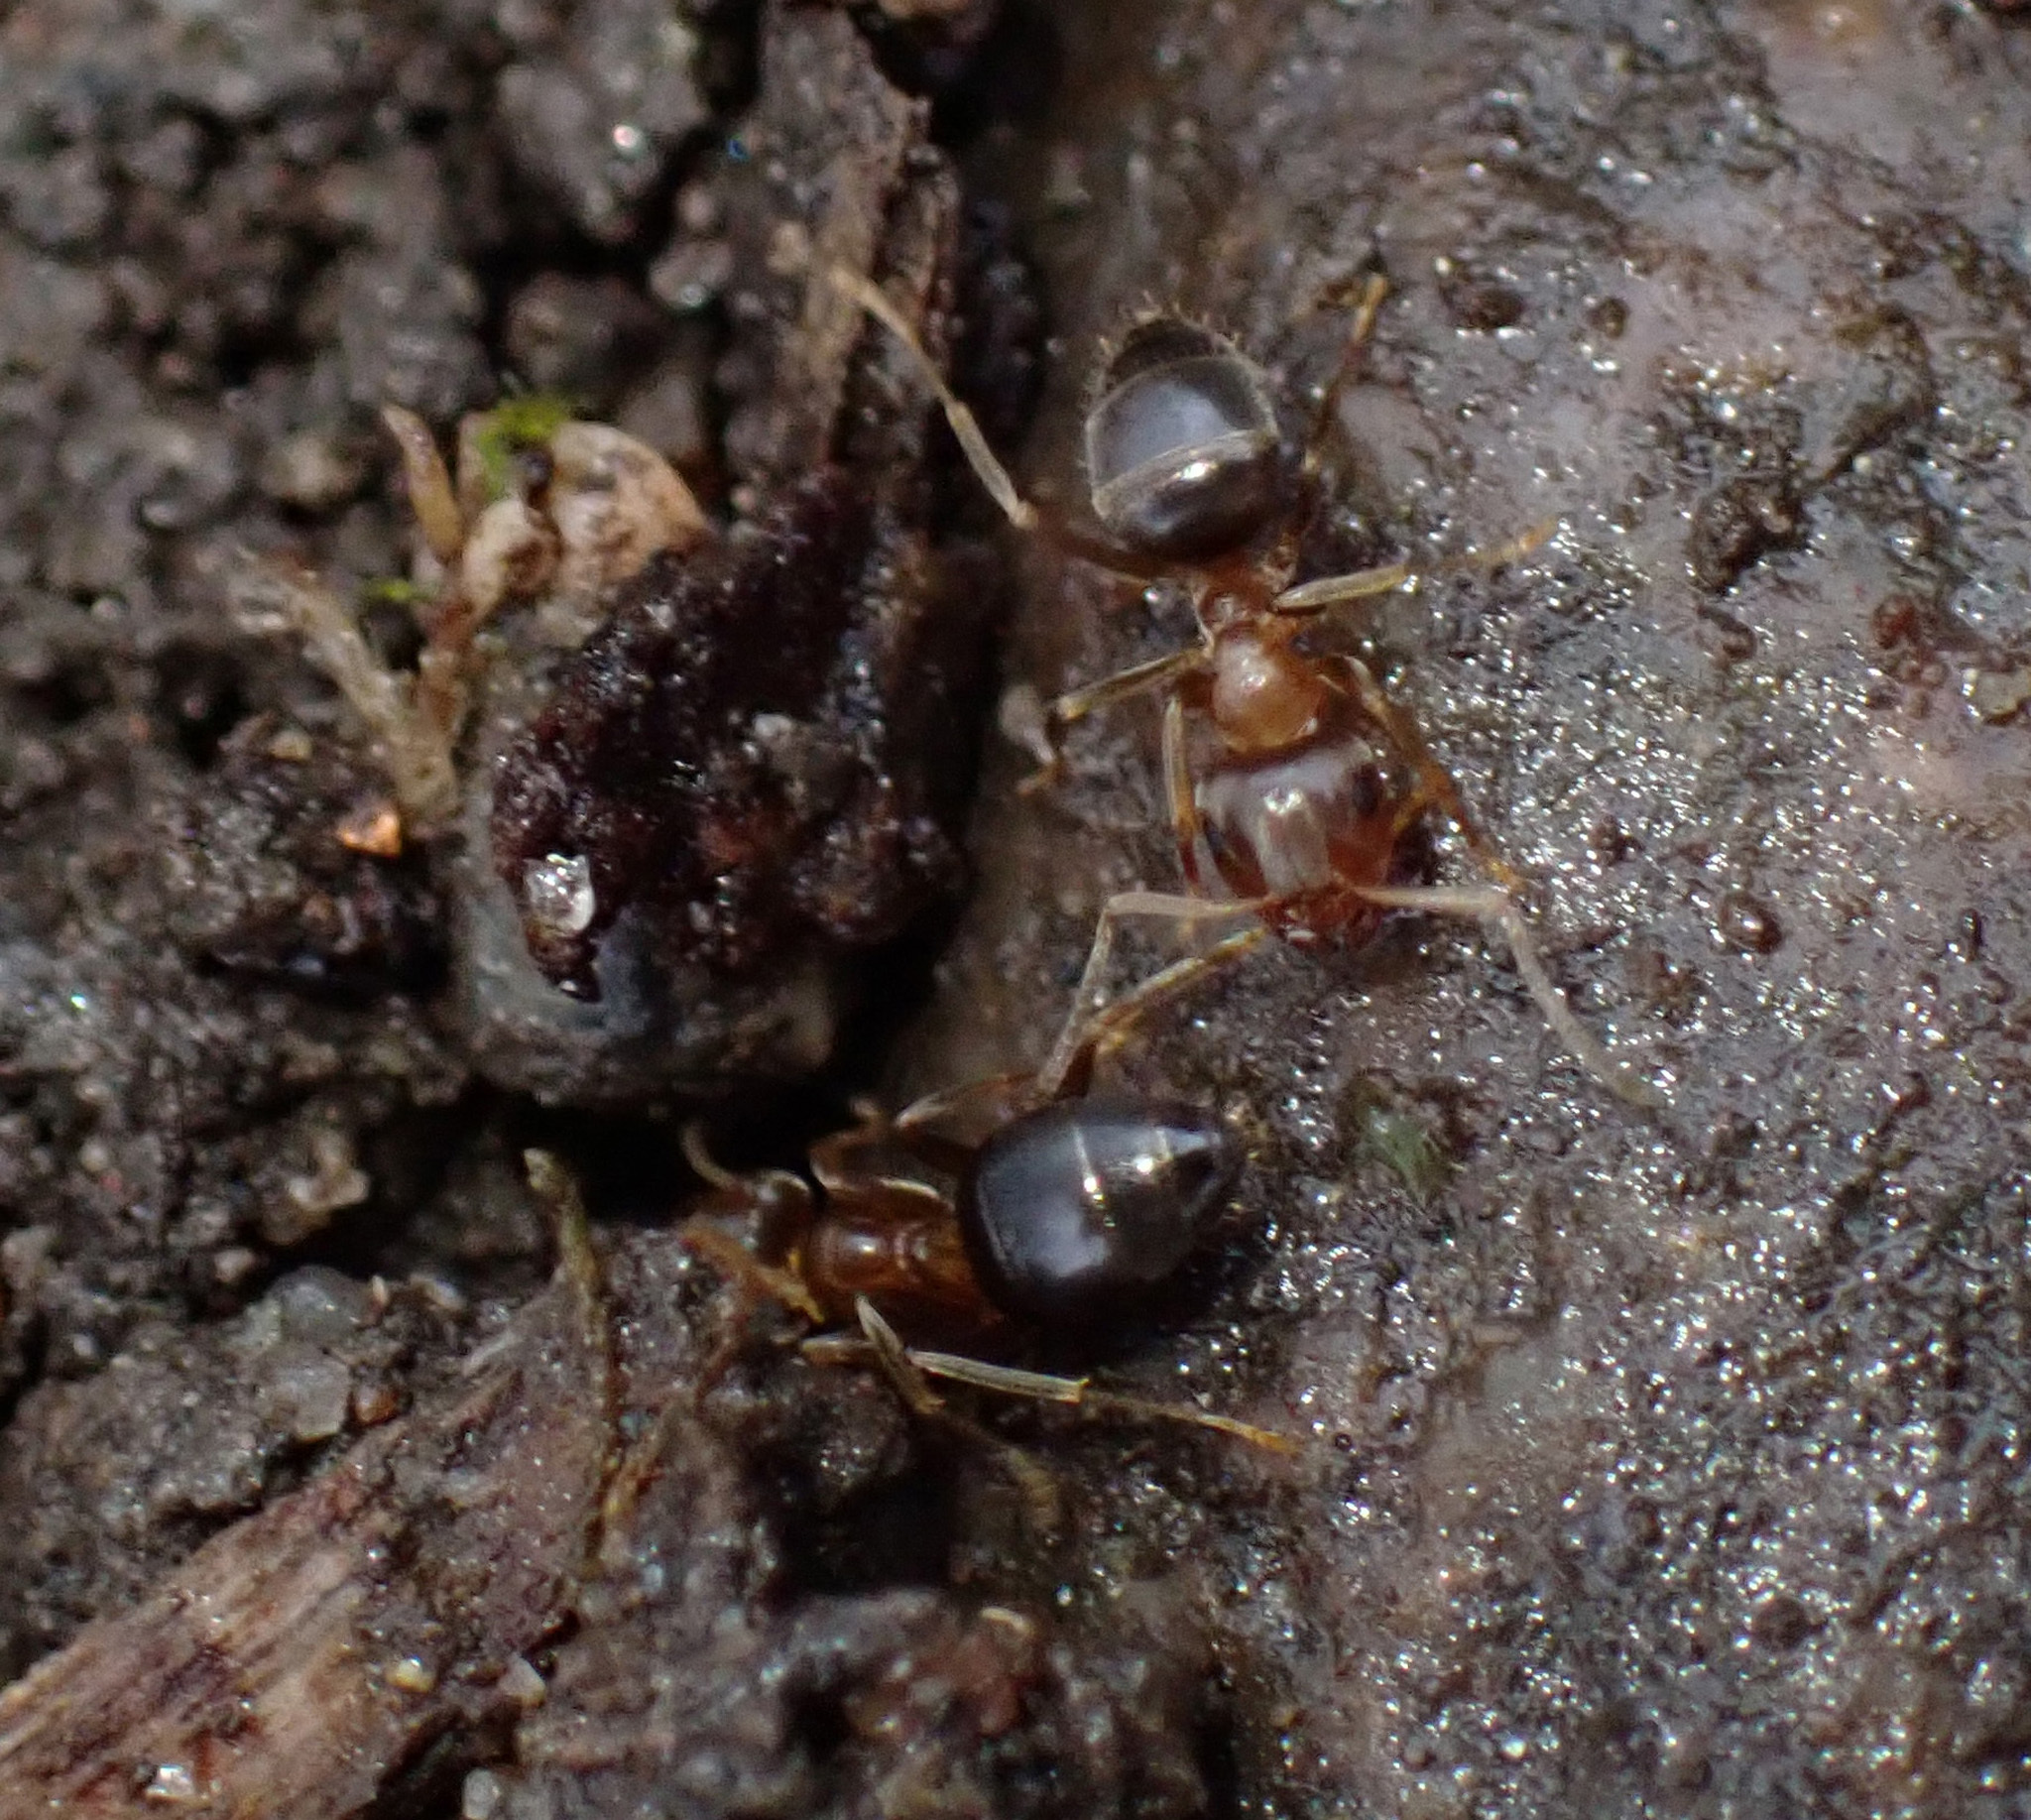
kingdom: Animalia
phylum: Arthropoda
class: Insecta
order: Hymenoptera
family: Formicidae
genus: Lasius
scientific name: Lasius brunneus
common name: Brown ant
